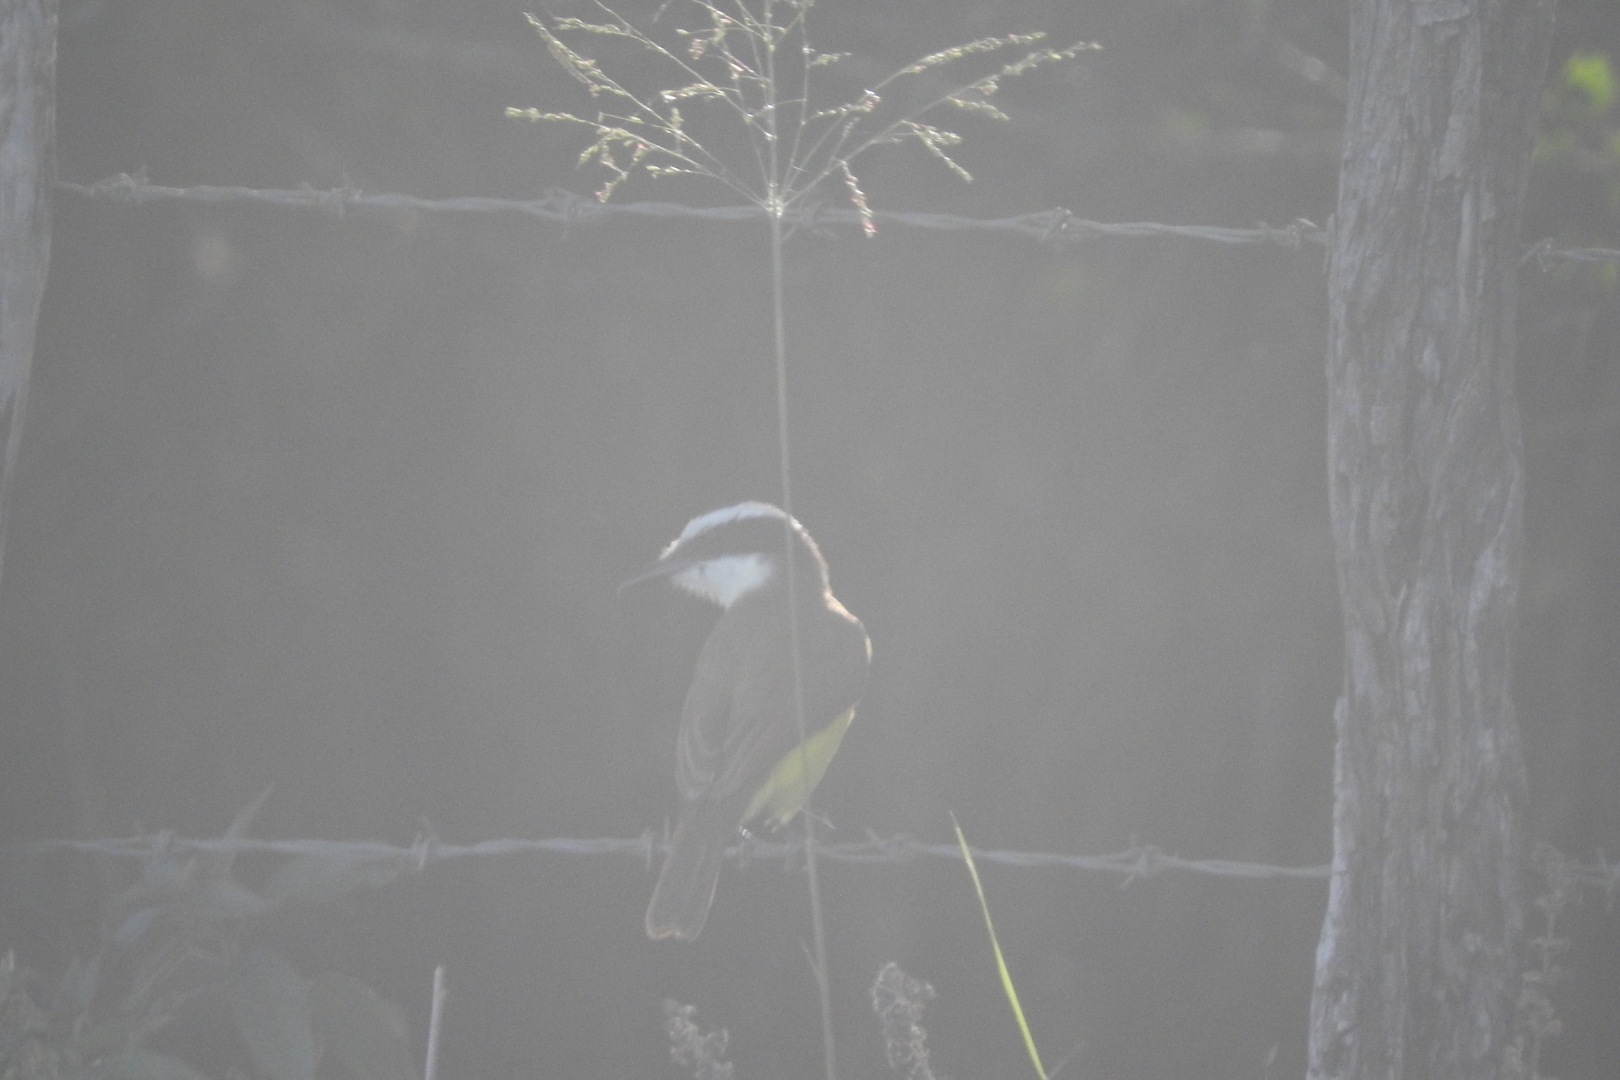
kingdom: Animalia
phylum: Chordata
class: Aves
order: Passeriformes
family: Tyrannidae
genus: Pitangus
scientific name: Pitangus sulphuratus
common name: Great kiskadee
